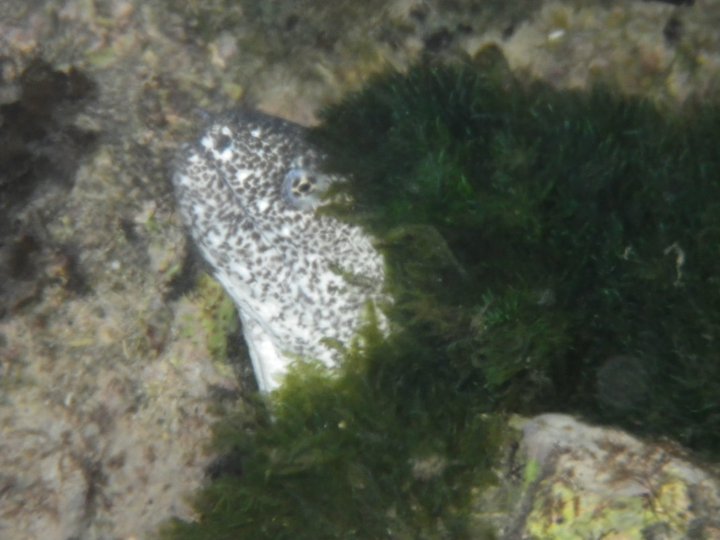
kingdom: Animalia
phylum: Chordata
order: Anguilliformes
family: Muraenidae
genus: Gymnothorax
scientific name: Gymnothorax pictus
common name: Peppered moray
